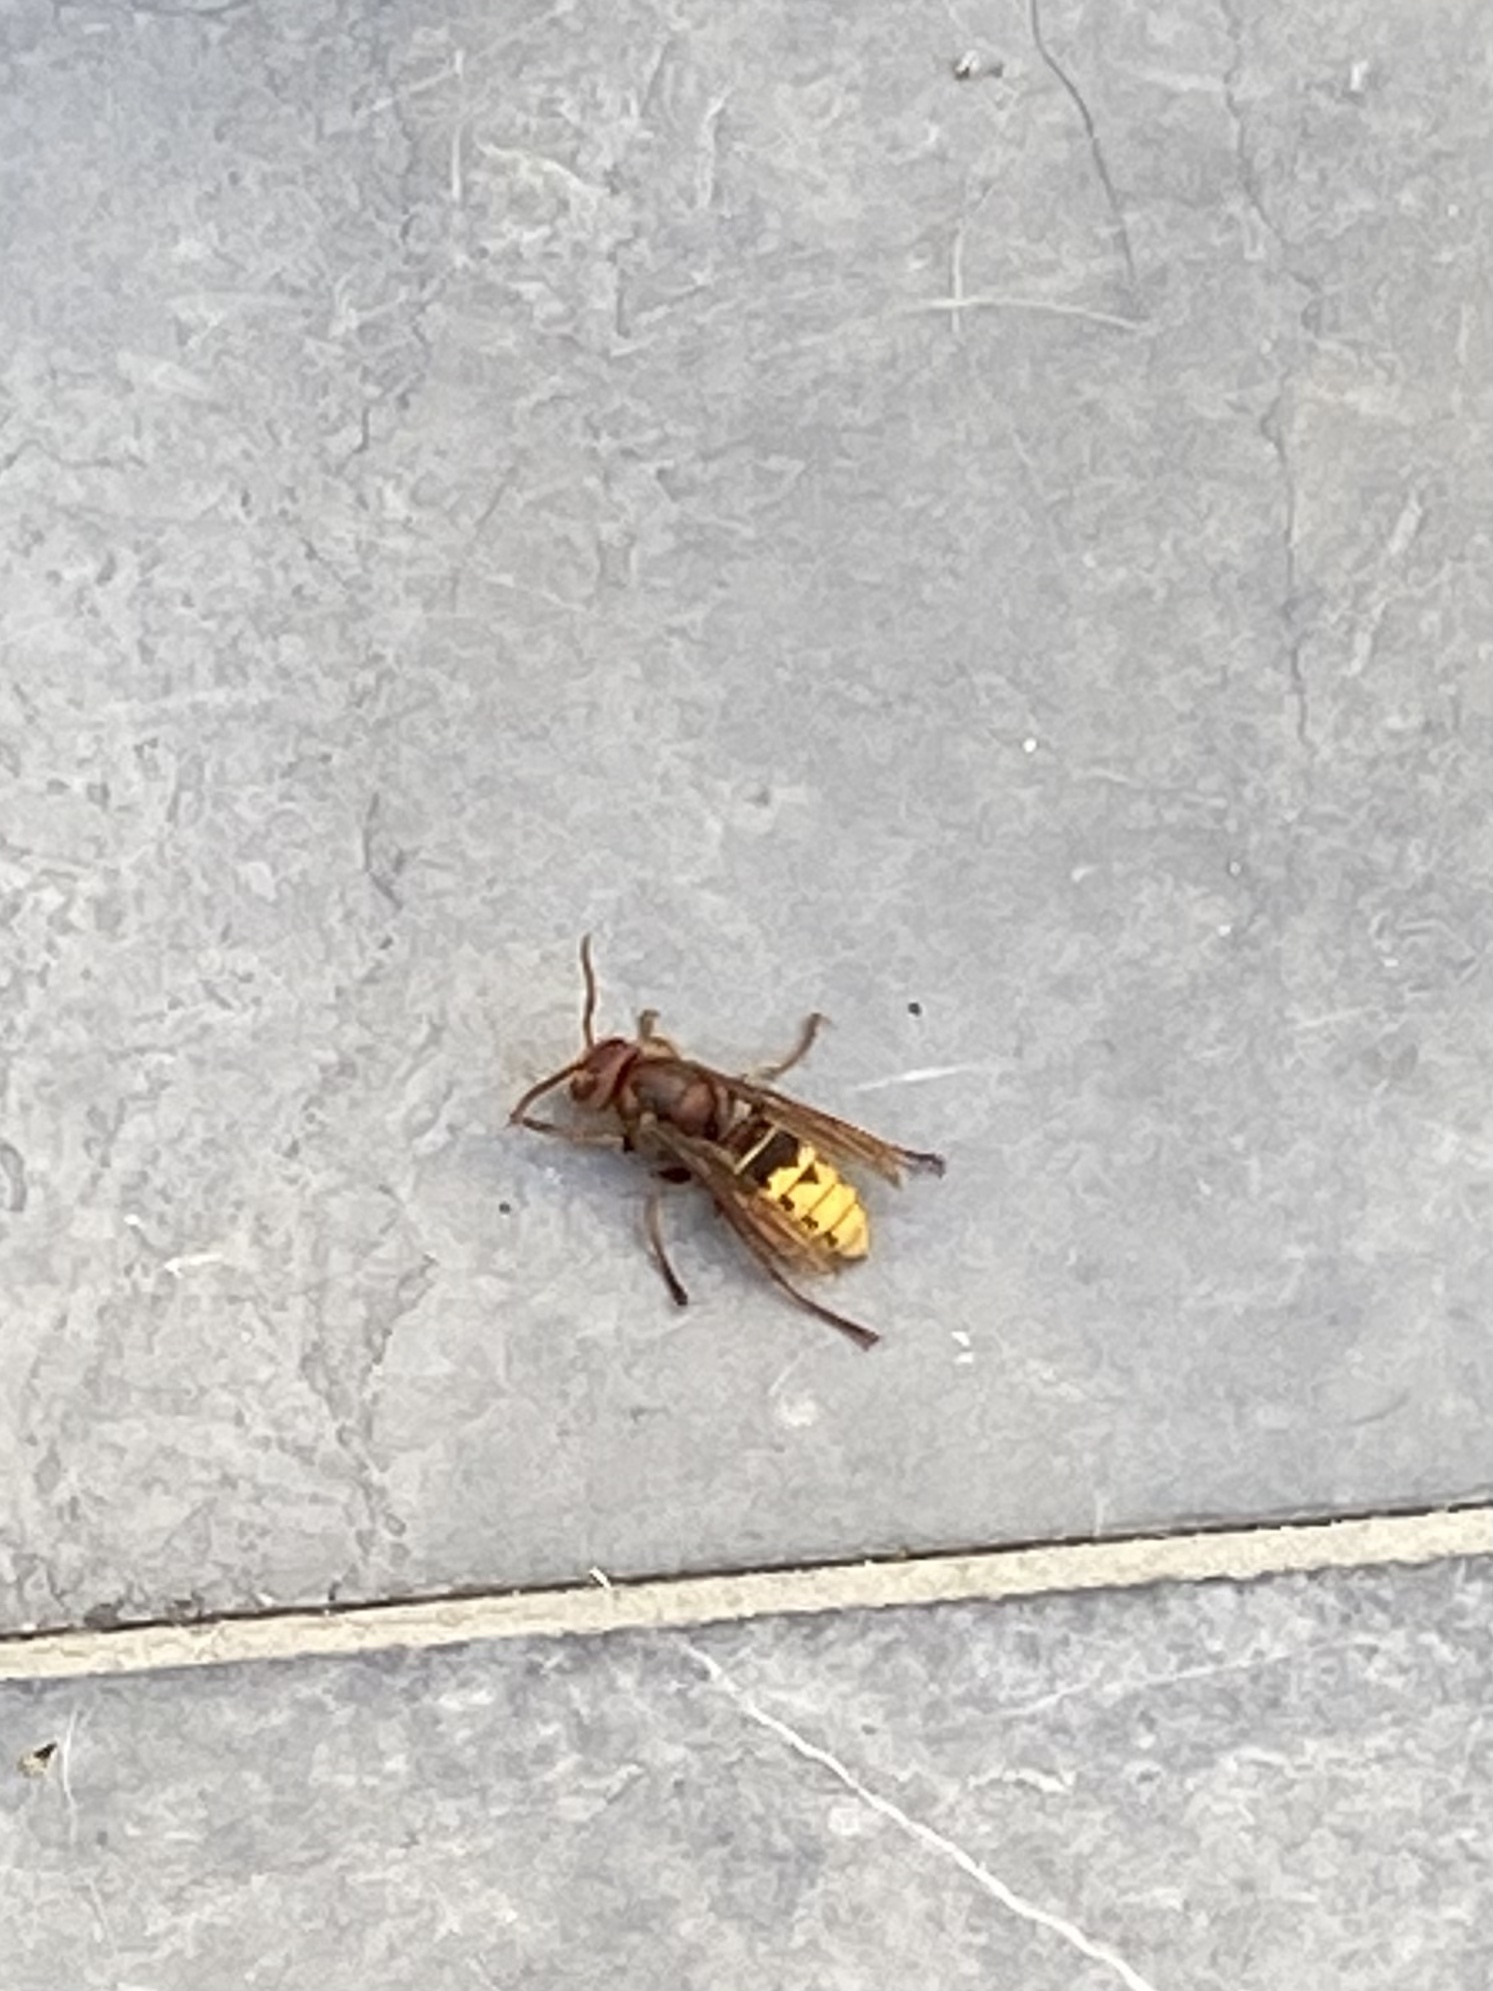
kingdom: Animalia
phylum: Arthropoda
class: Insecta
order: Hymenoptera
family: Vespidae
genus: Vespa
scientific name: Vespa crabro
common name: Hornet
